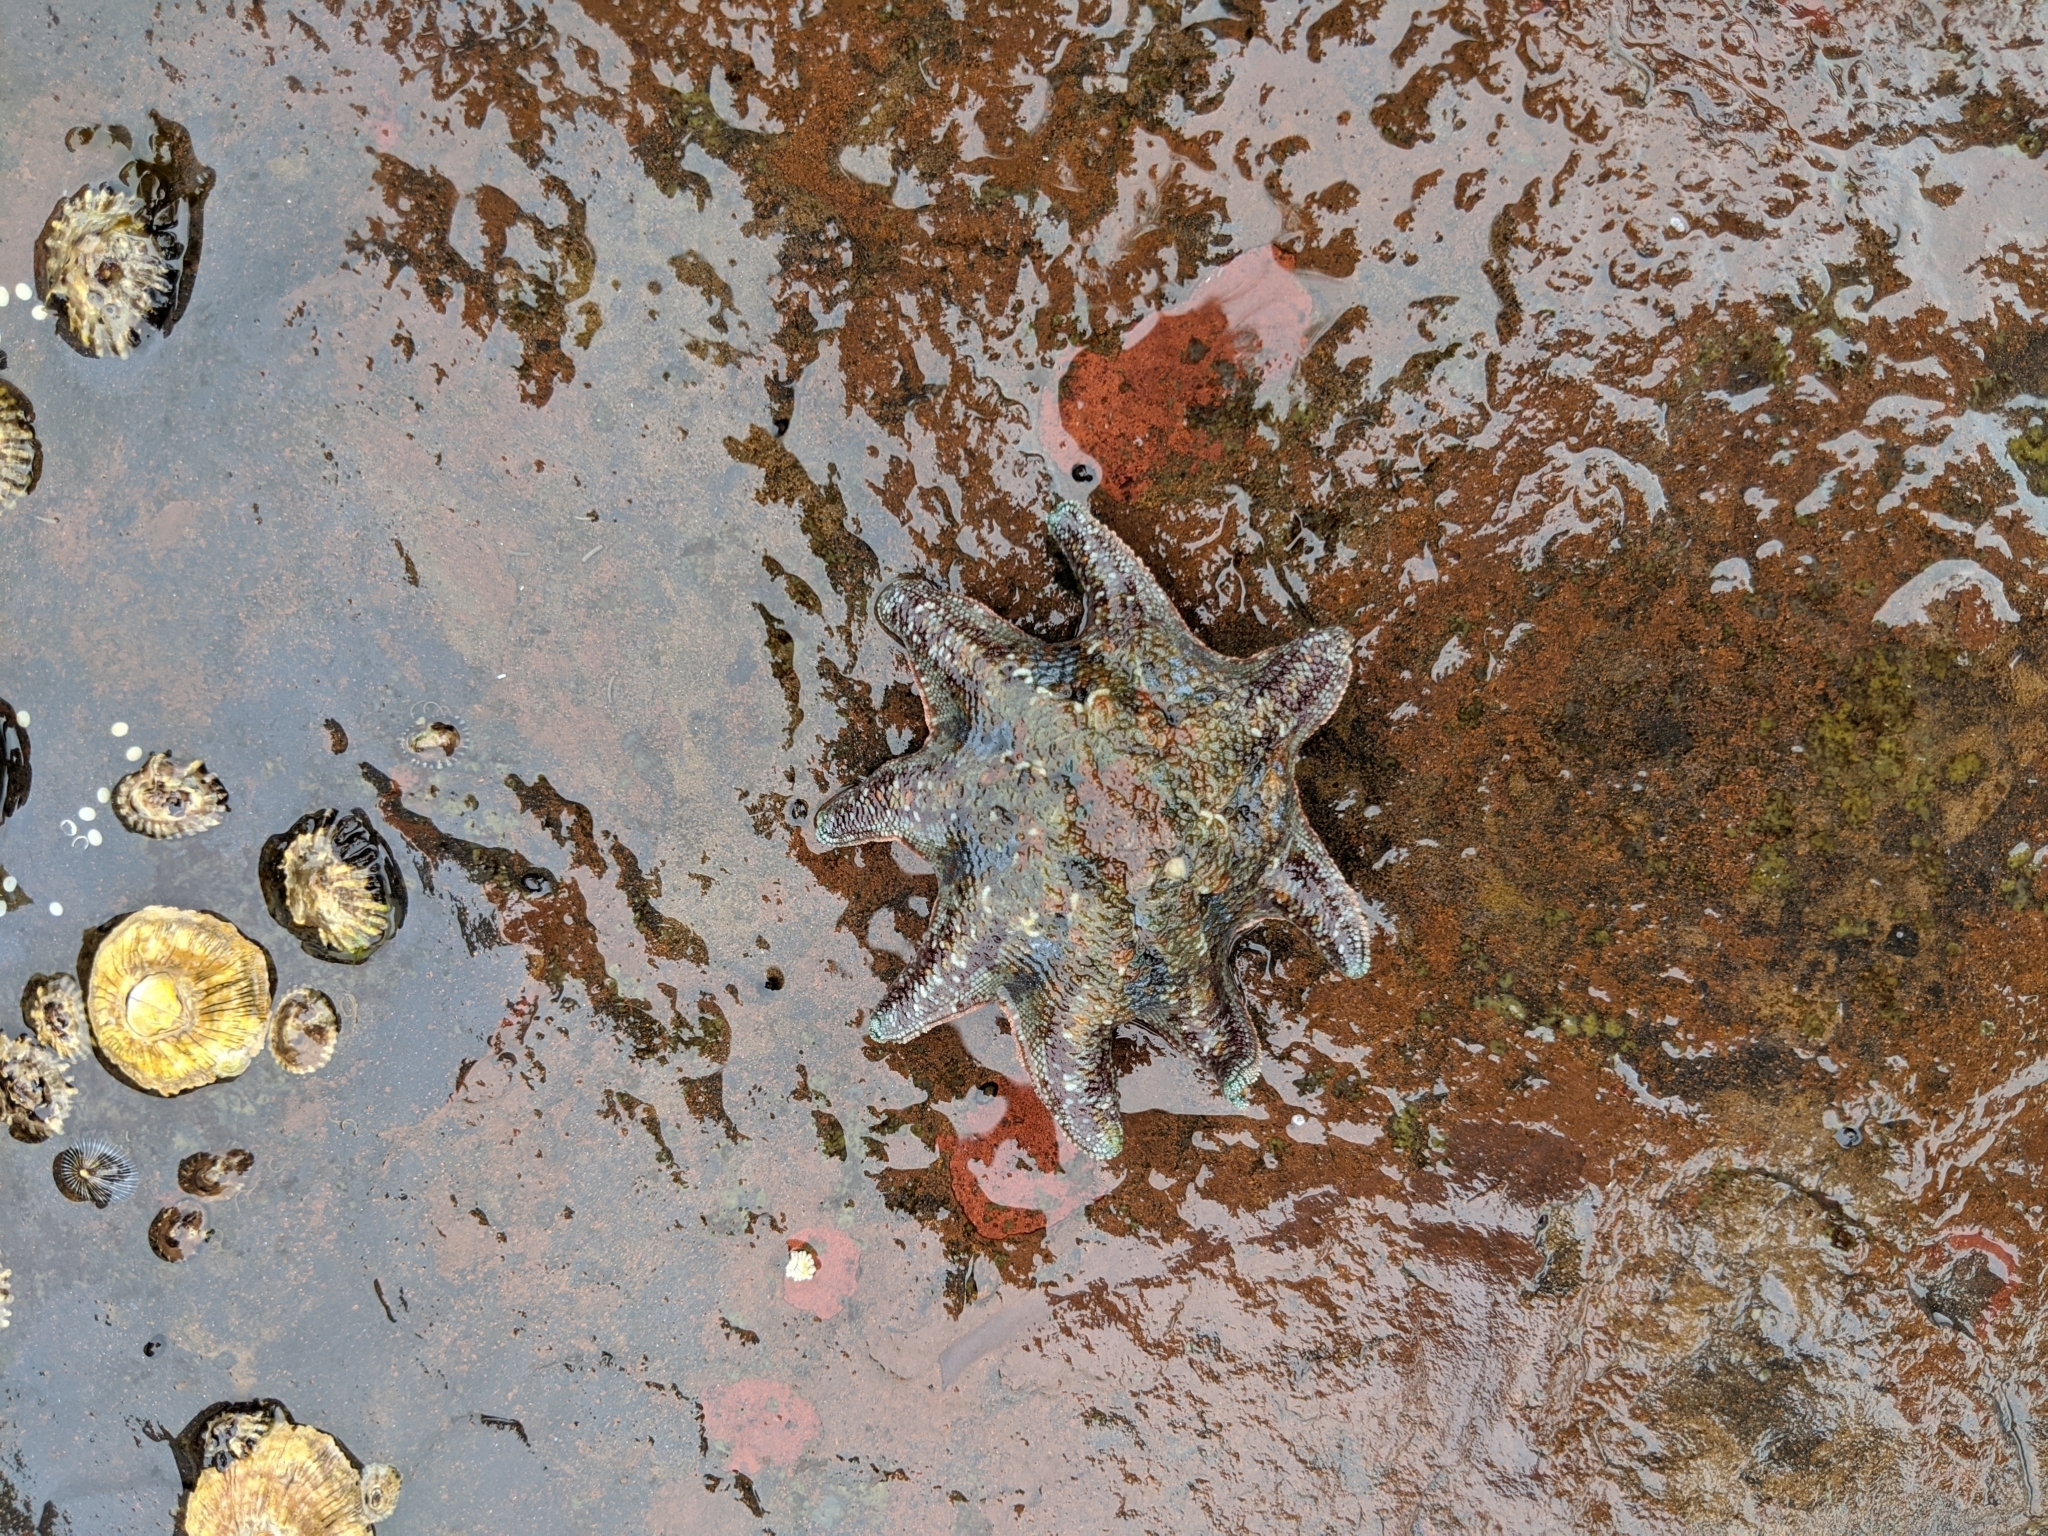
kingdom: Animalia
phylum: Echinodermata
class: Asteroidea
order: Valvatida
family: Asterinidae
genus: Meridiastra
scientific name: Meridiastra calcar
